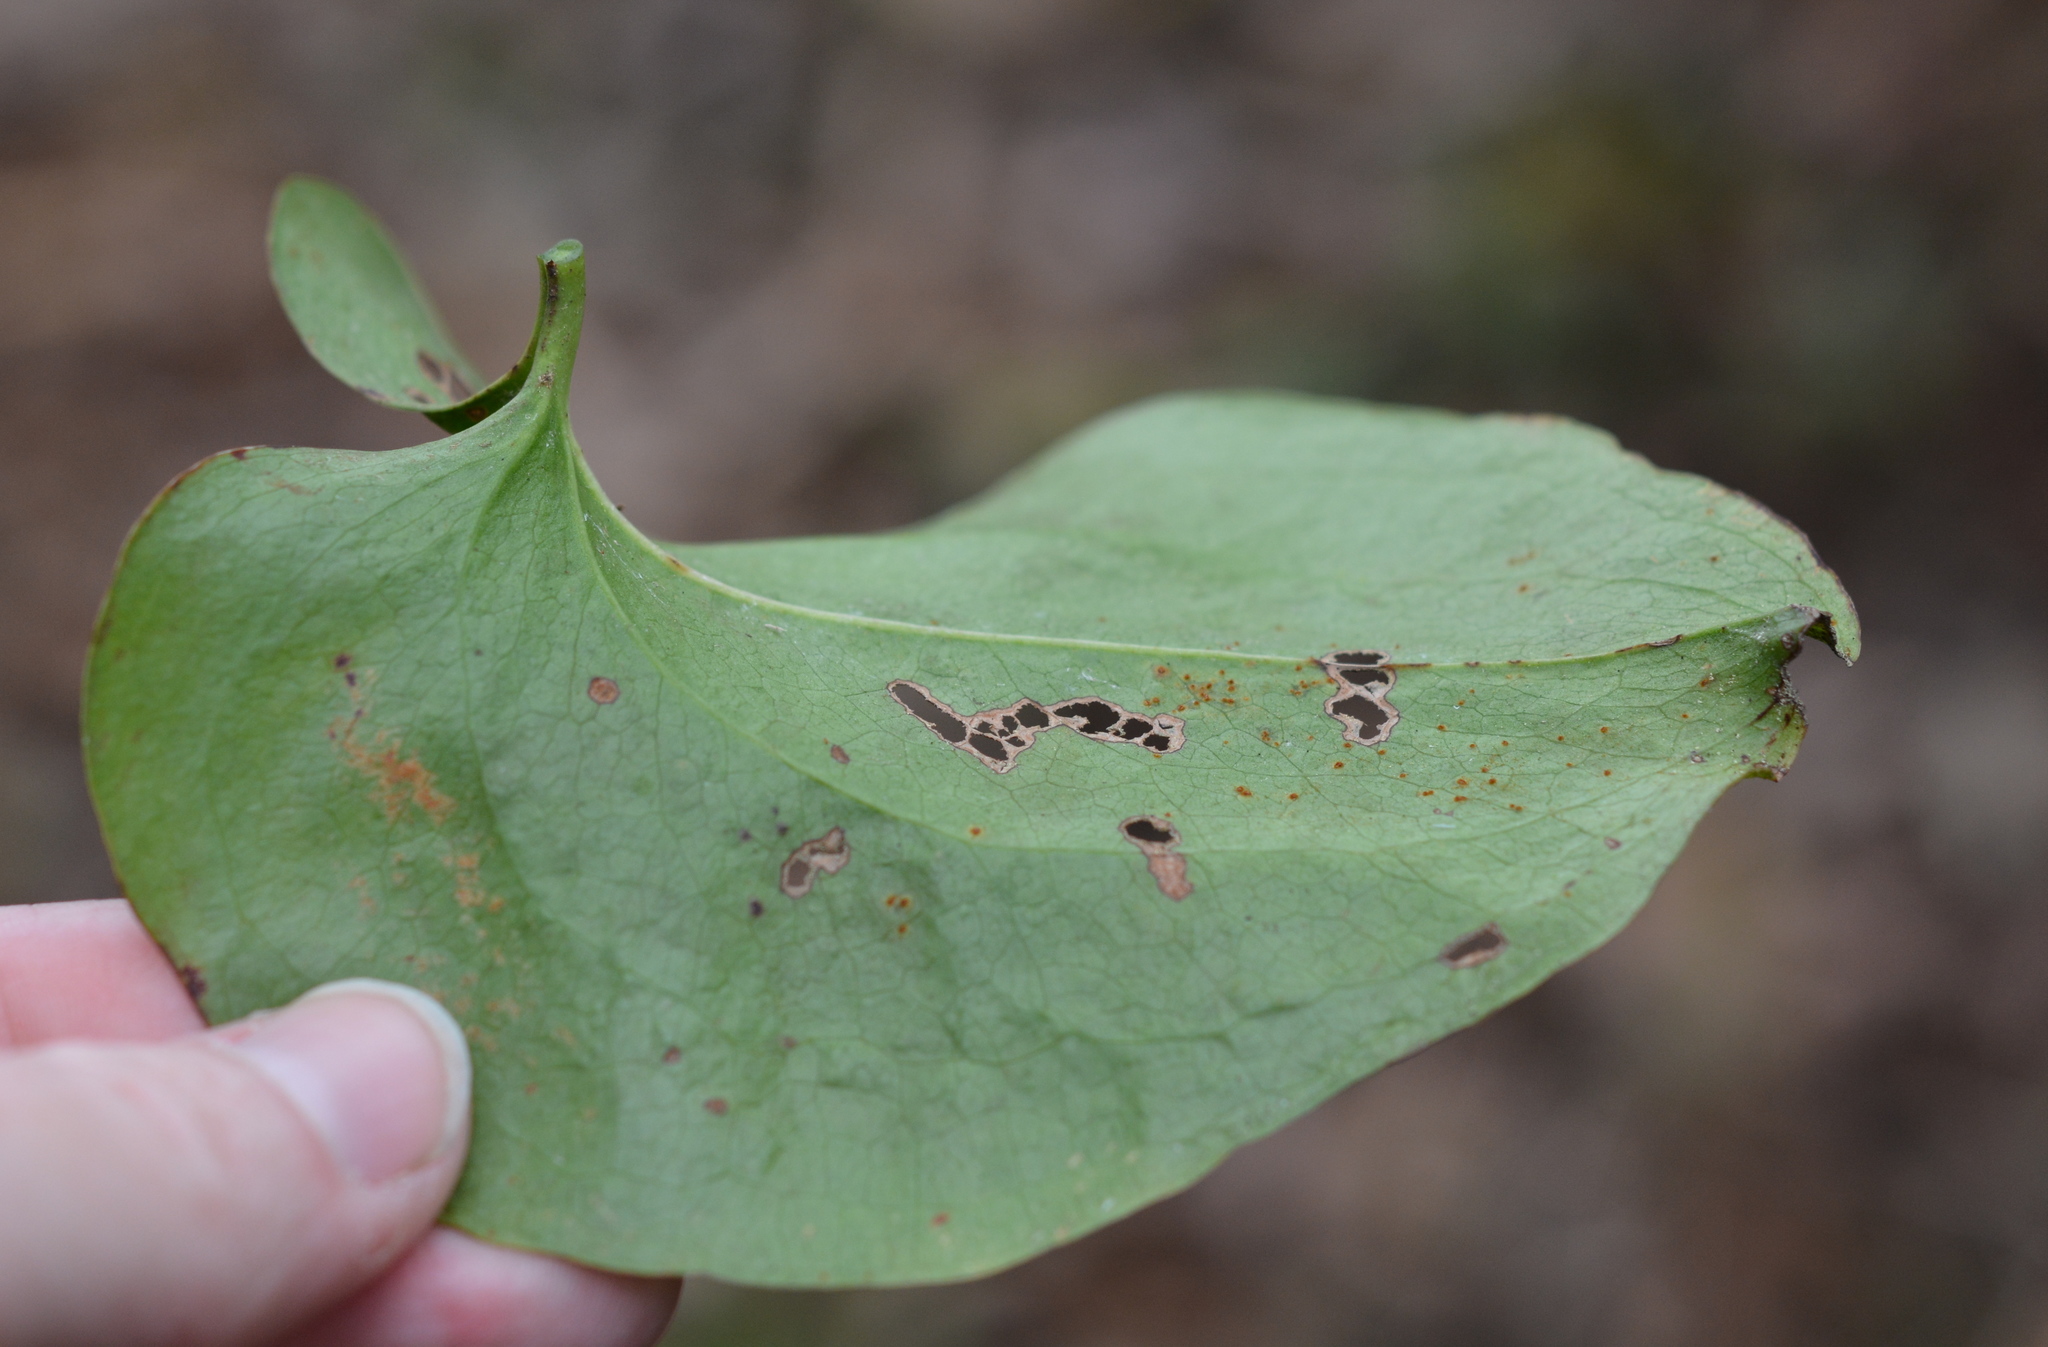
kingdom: Plantae
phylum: Tracheophyta
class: Liliopsida
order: Liliales
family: Smilacaceae
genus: Smilax
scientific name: Smilax rotundifolia
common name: Bullbriar
